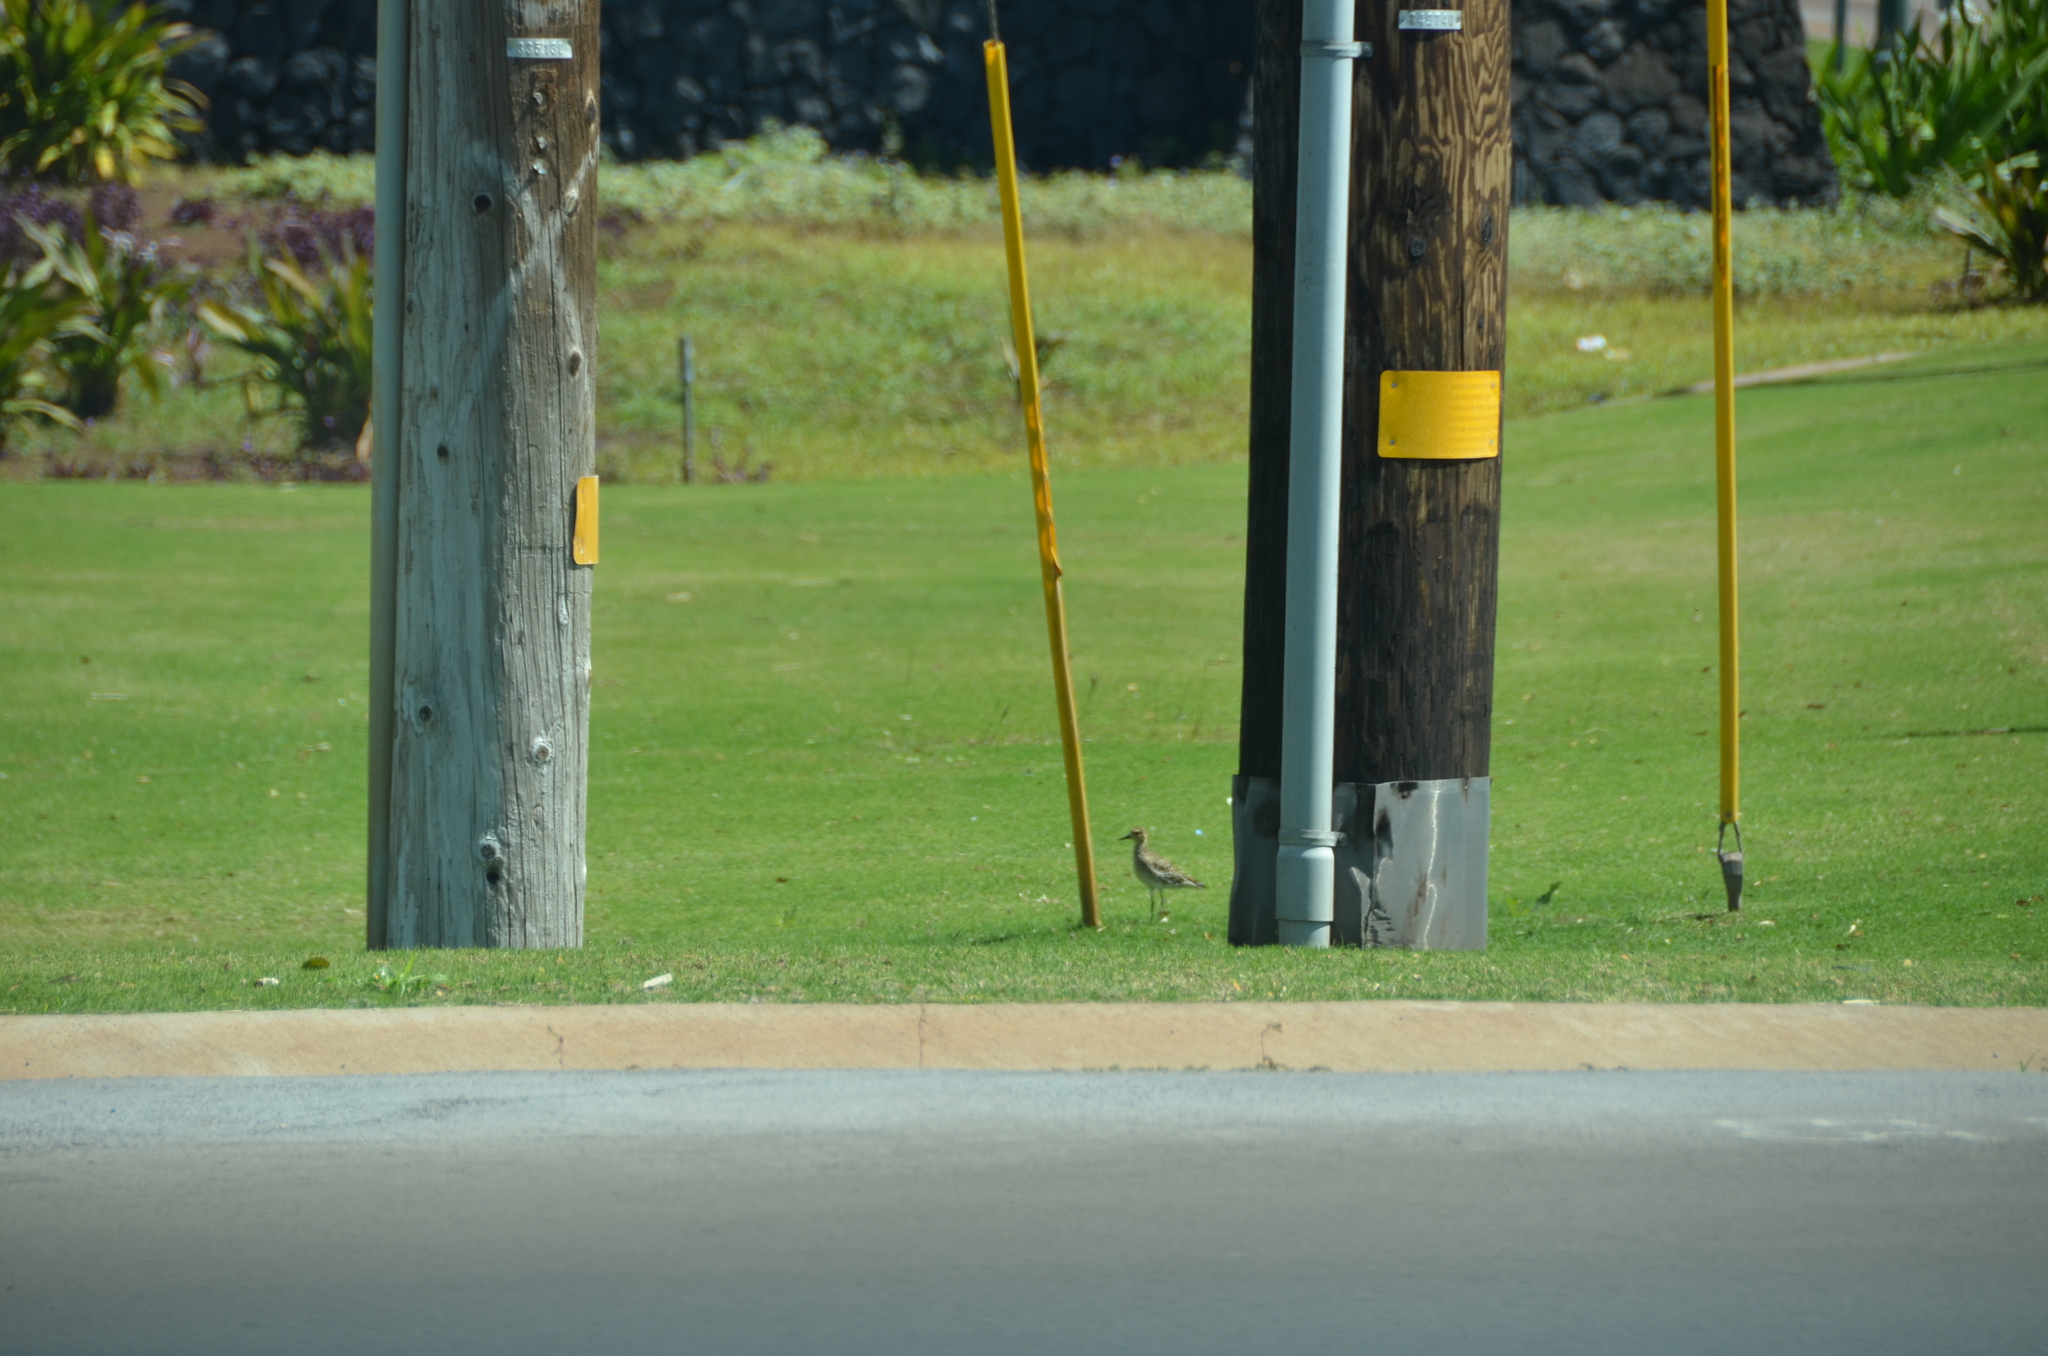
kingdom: Animalia
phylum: Chordata
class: Aves
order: Charadriiformes
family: Charadriidae
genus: Pluvialis
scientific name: Pluvialis fulva
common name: Pacific golden plover
